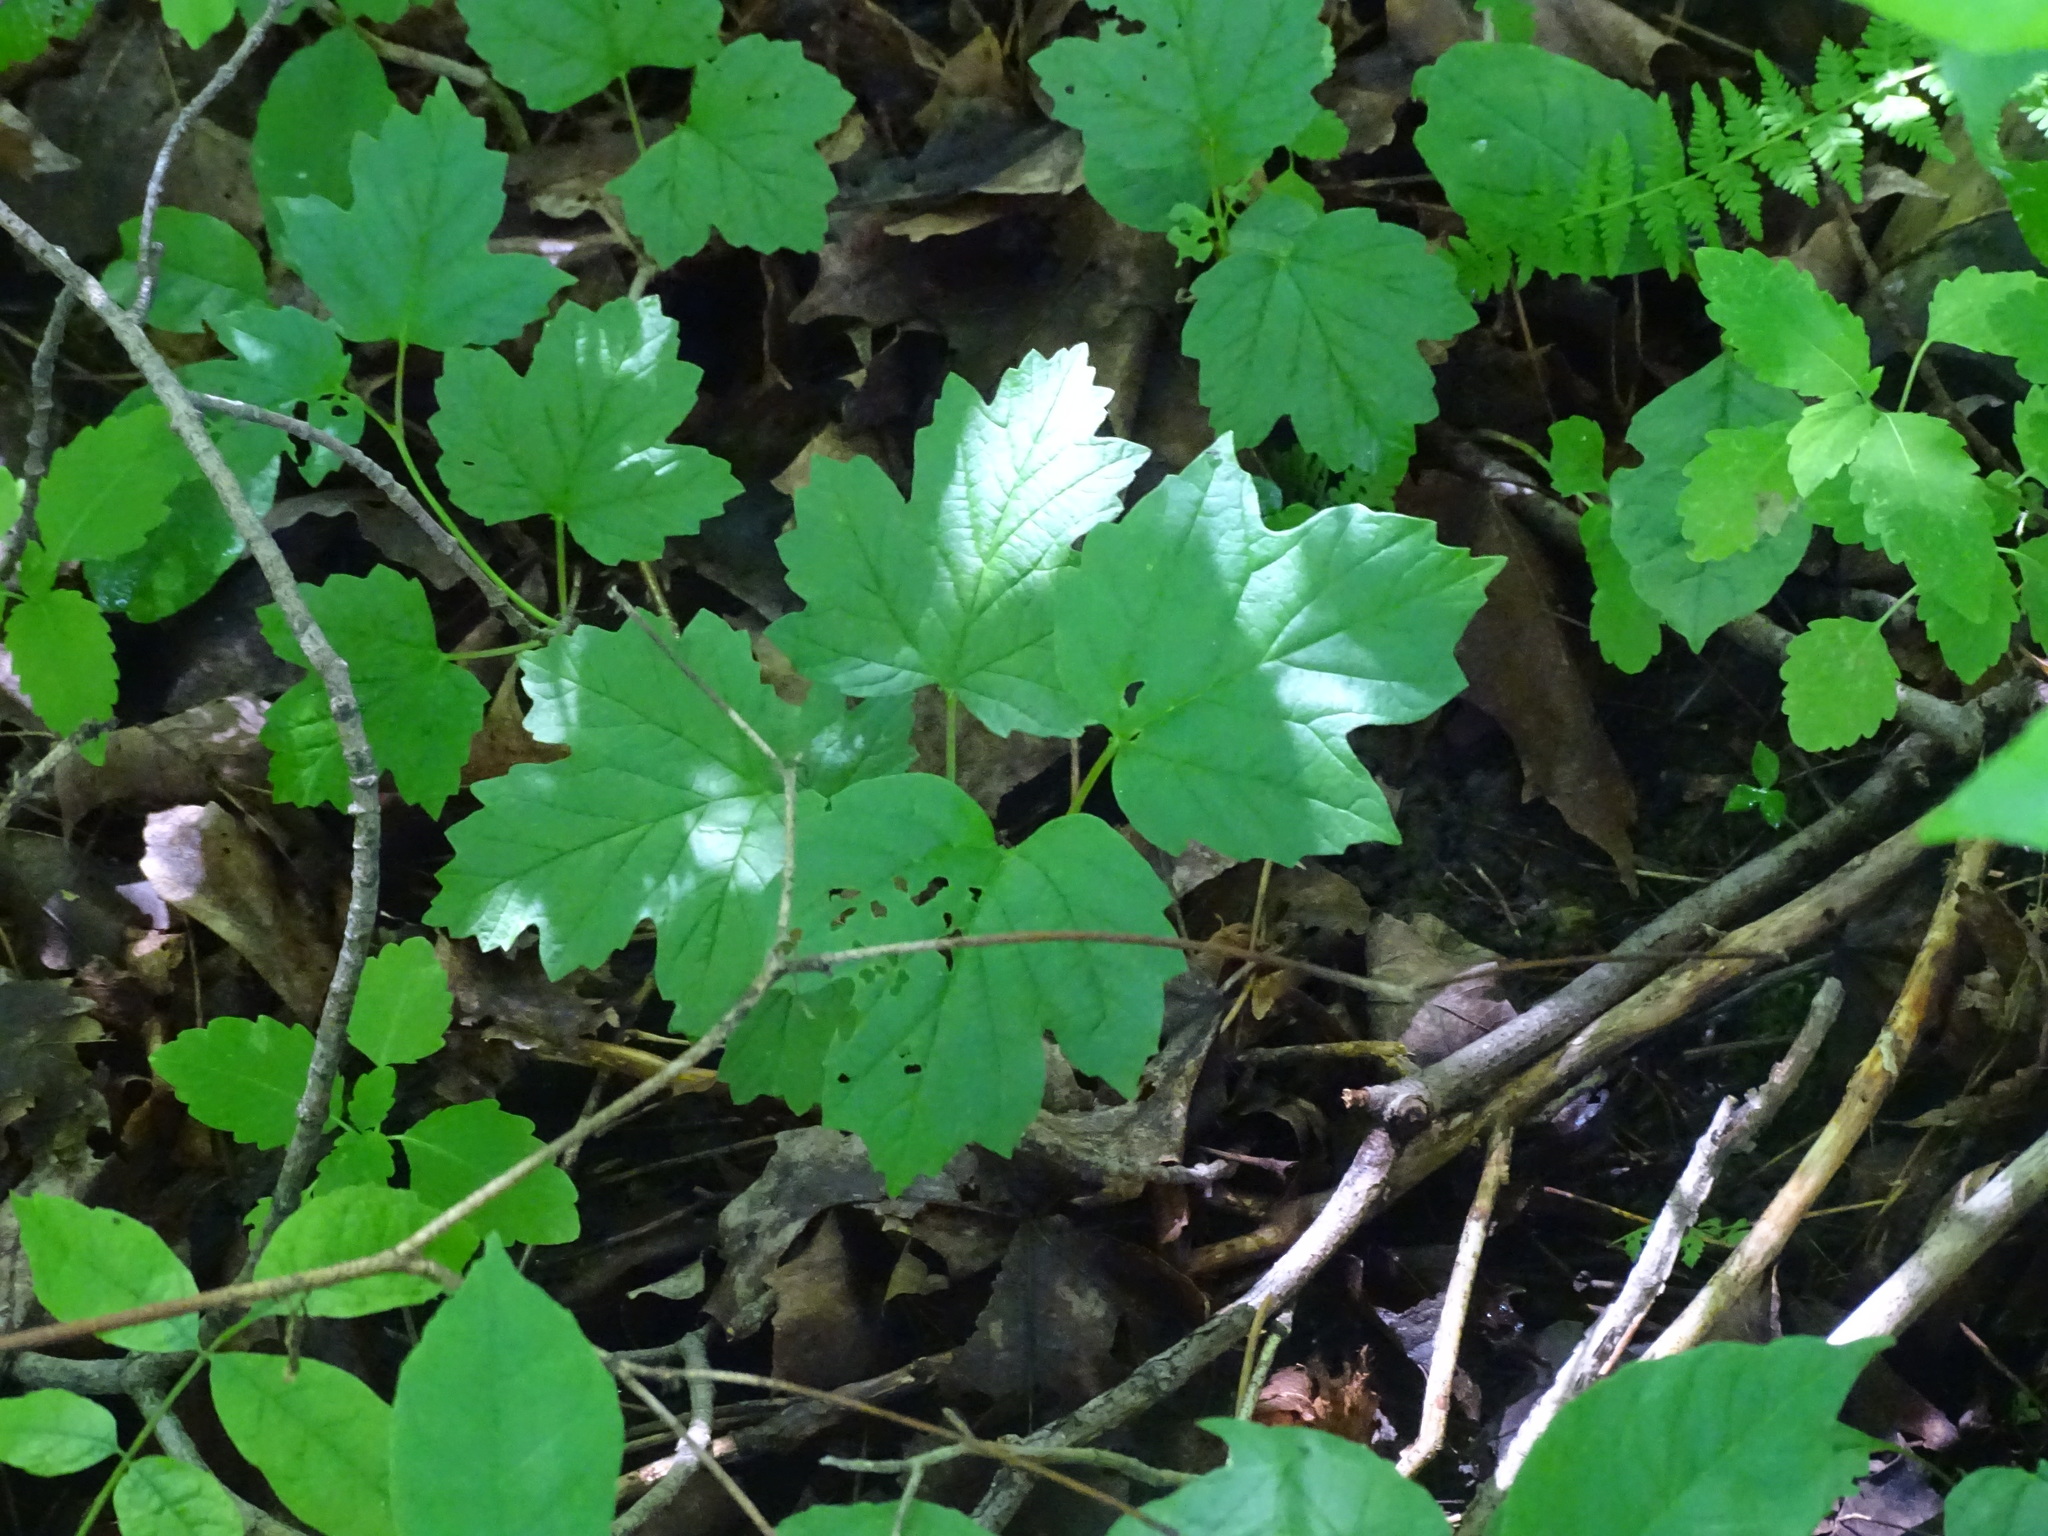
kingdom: Plantae
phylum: Tracheophyta
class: Magnoliopsida
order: Dipsacales
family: Viburnaceae
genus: Viburnum
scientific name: Viburnum opulus
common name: Guelder-rose
